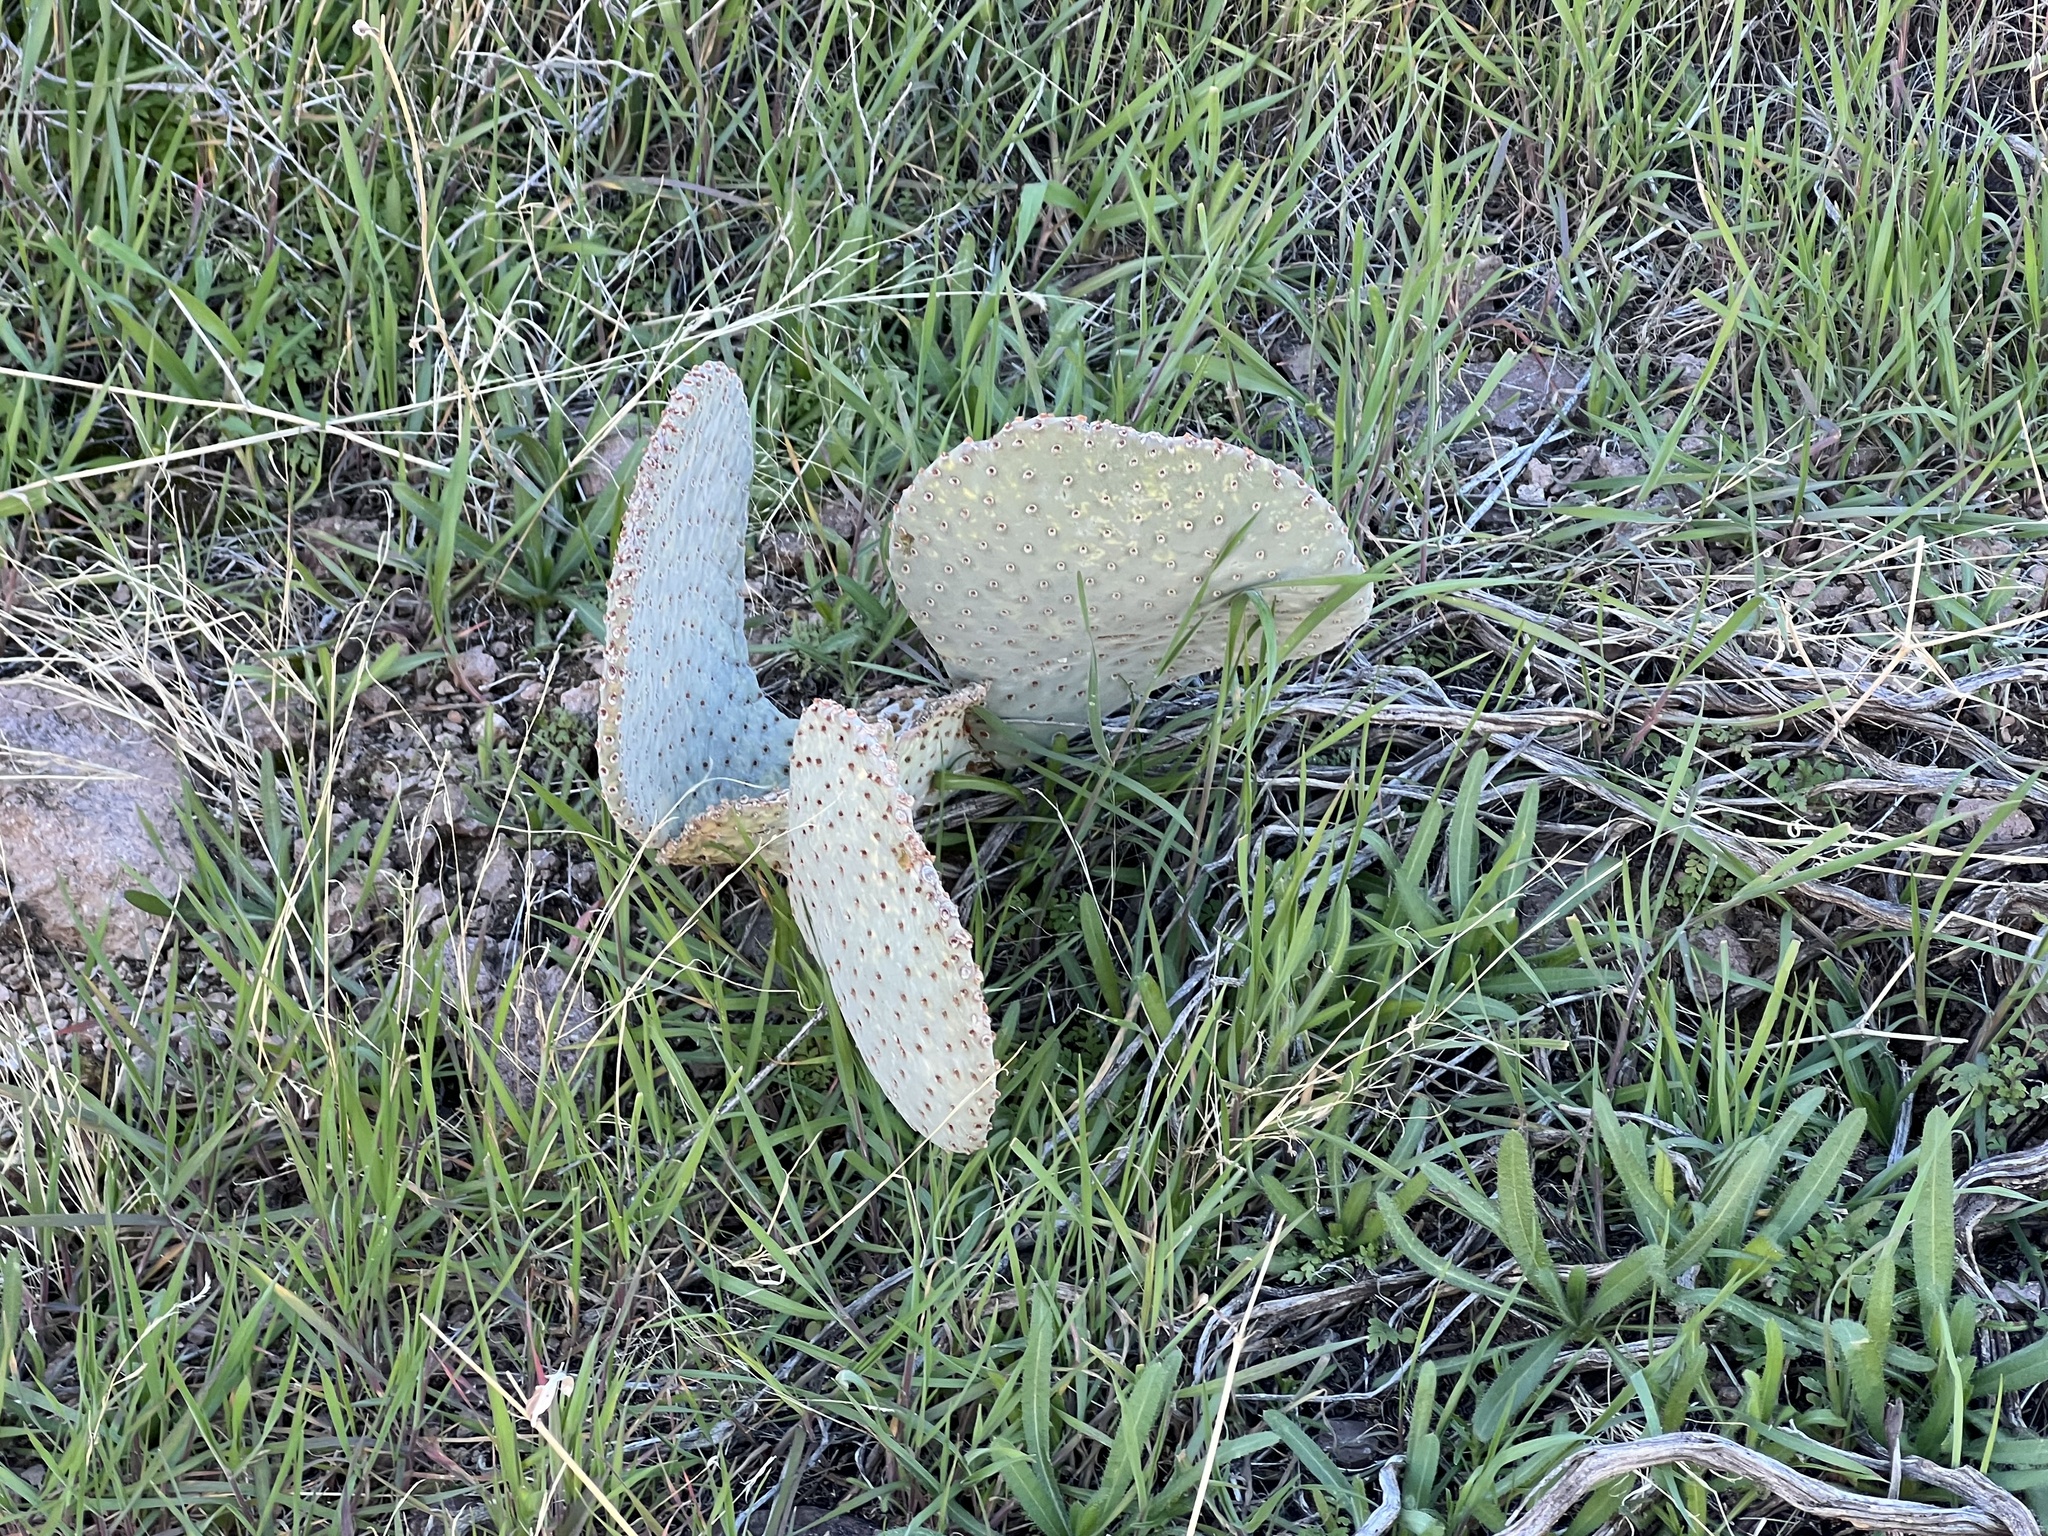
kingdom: Plantae
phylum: Tracheophyta
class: Magnoliopsida
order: Caryophyllales
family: Cactaceae
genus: Opuntia
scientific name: Opuntia basilaris
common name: Beavertail prickly-pear
